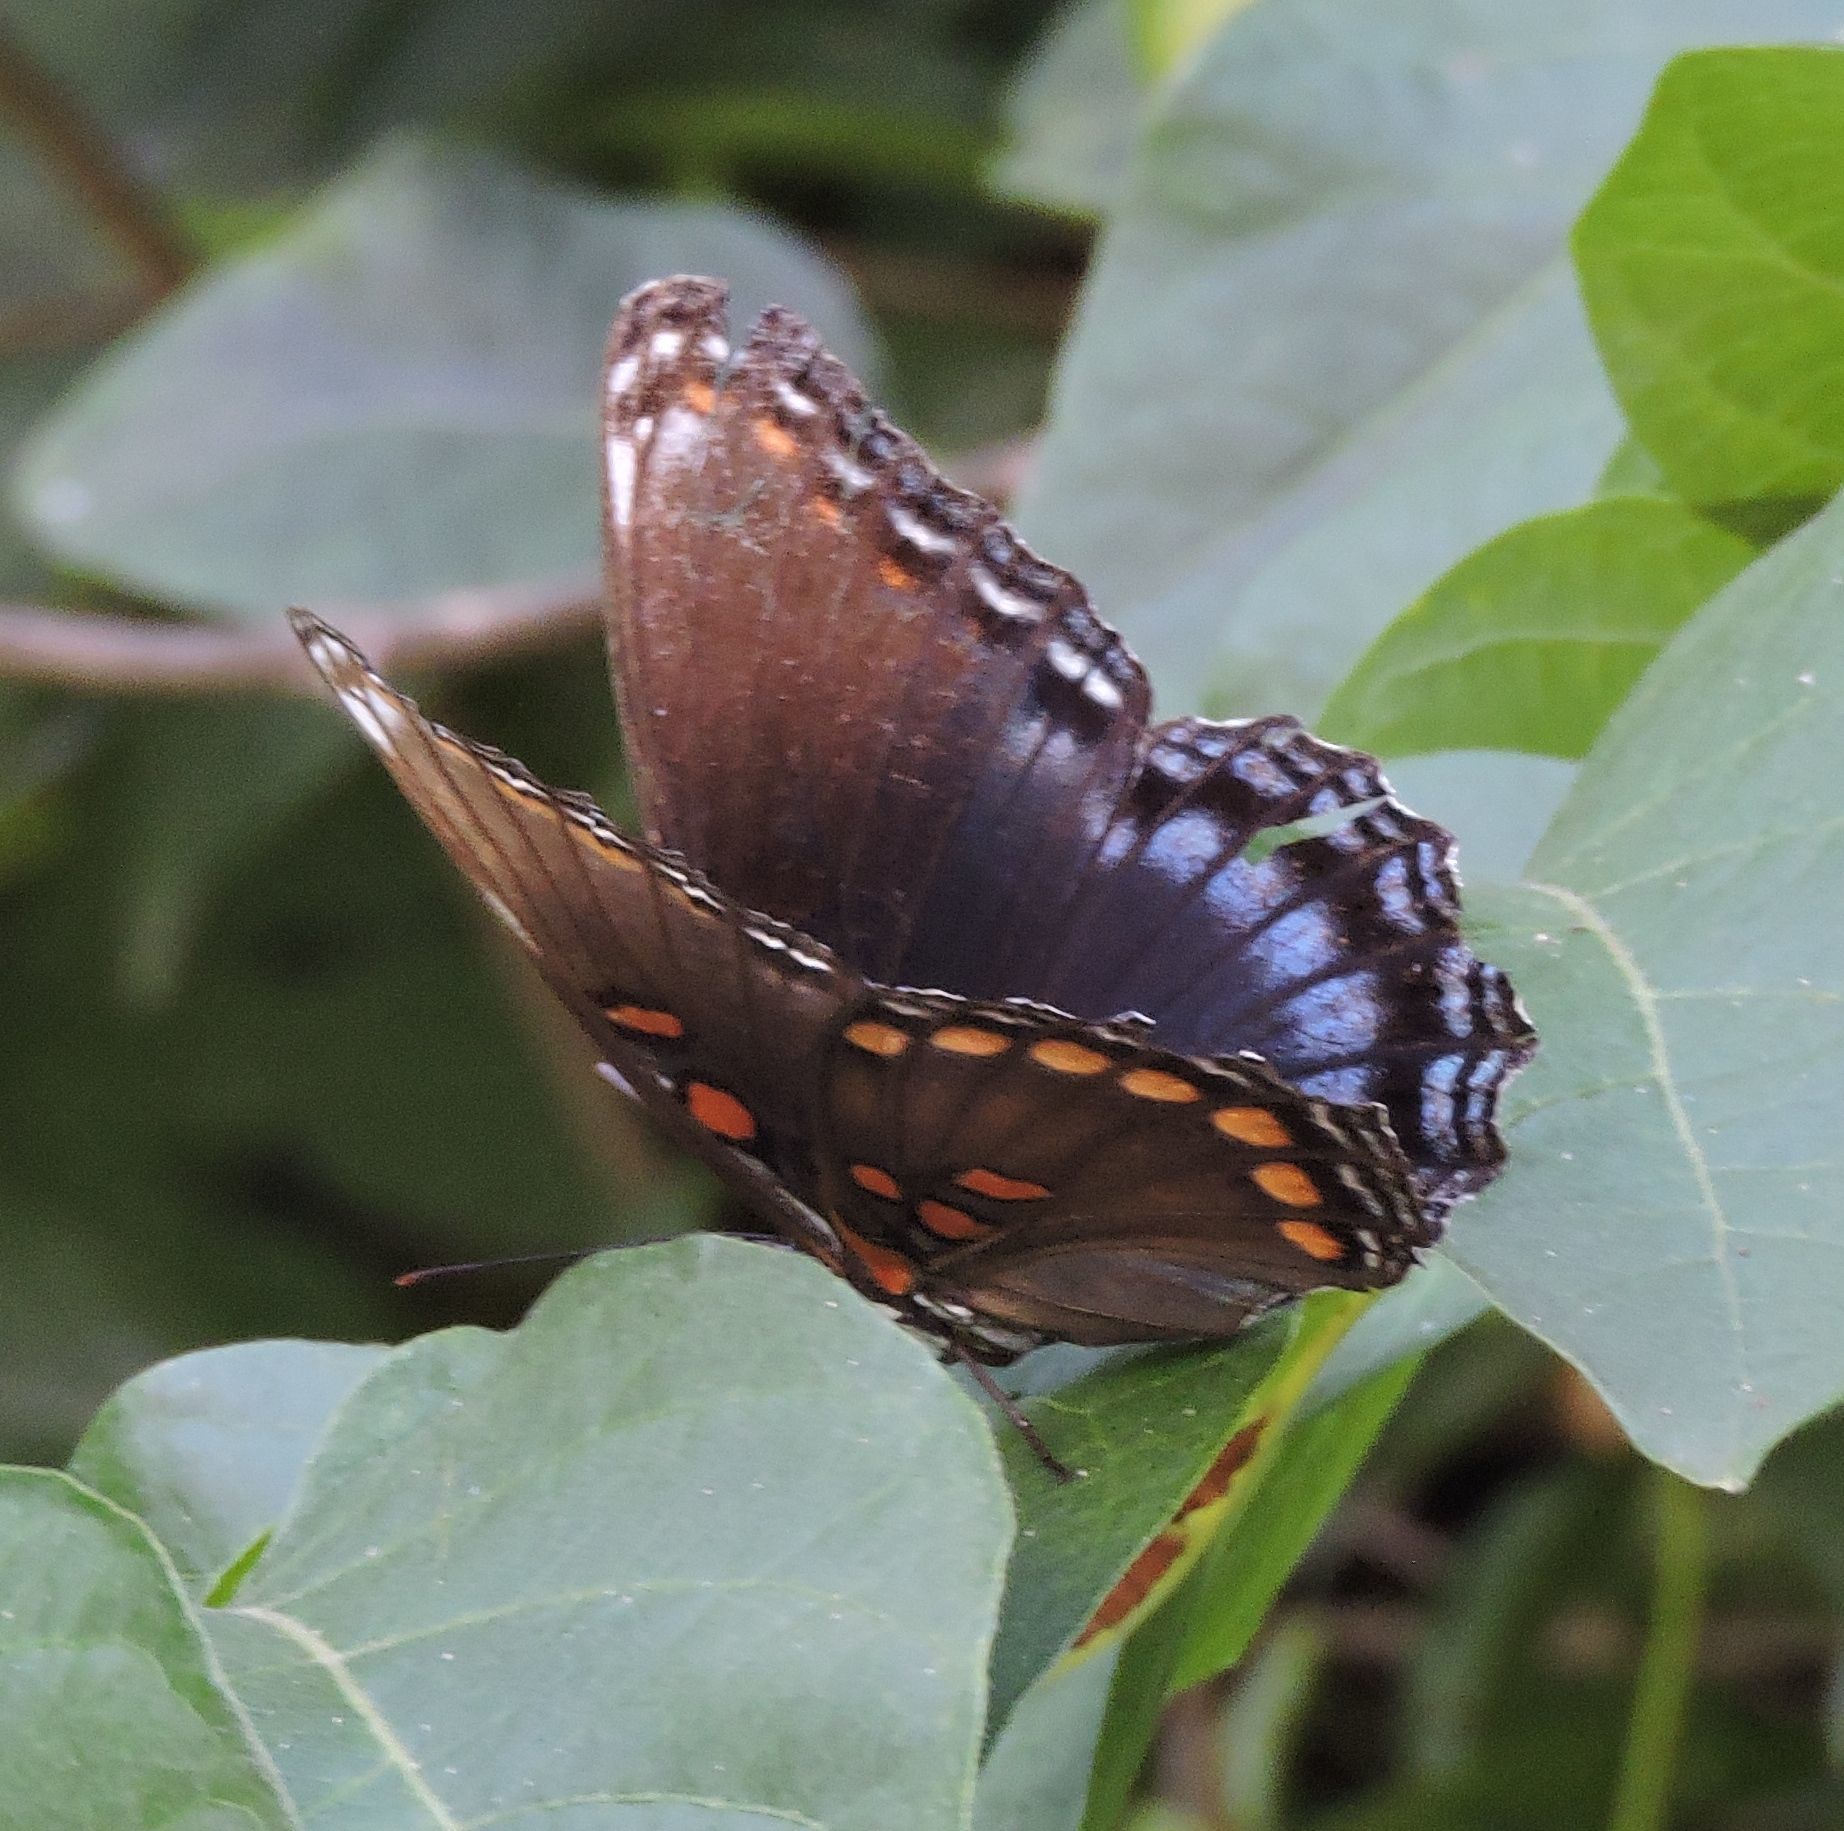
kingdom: Animalia
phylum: Arthropoda
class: Insecta
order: Lepidoptera
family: Nymphalidae
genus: Limenitis
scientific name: Limenitis astyanax
